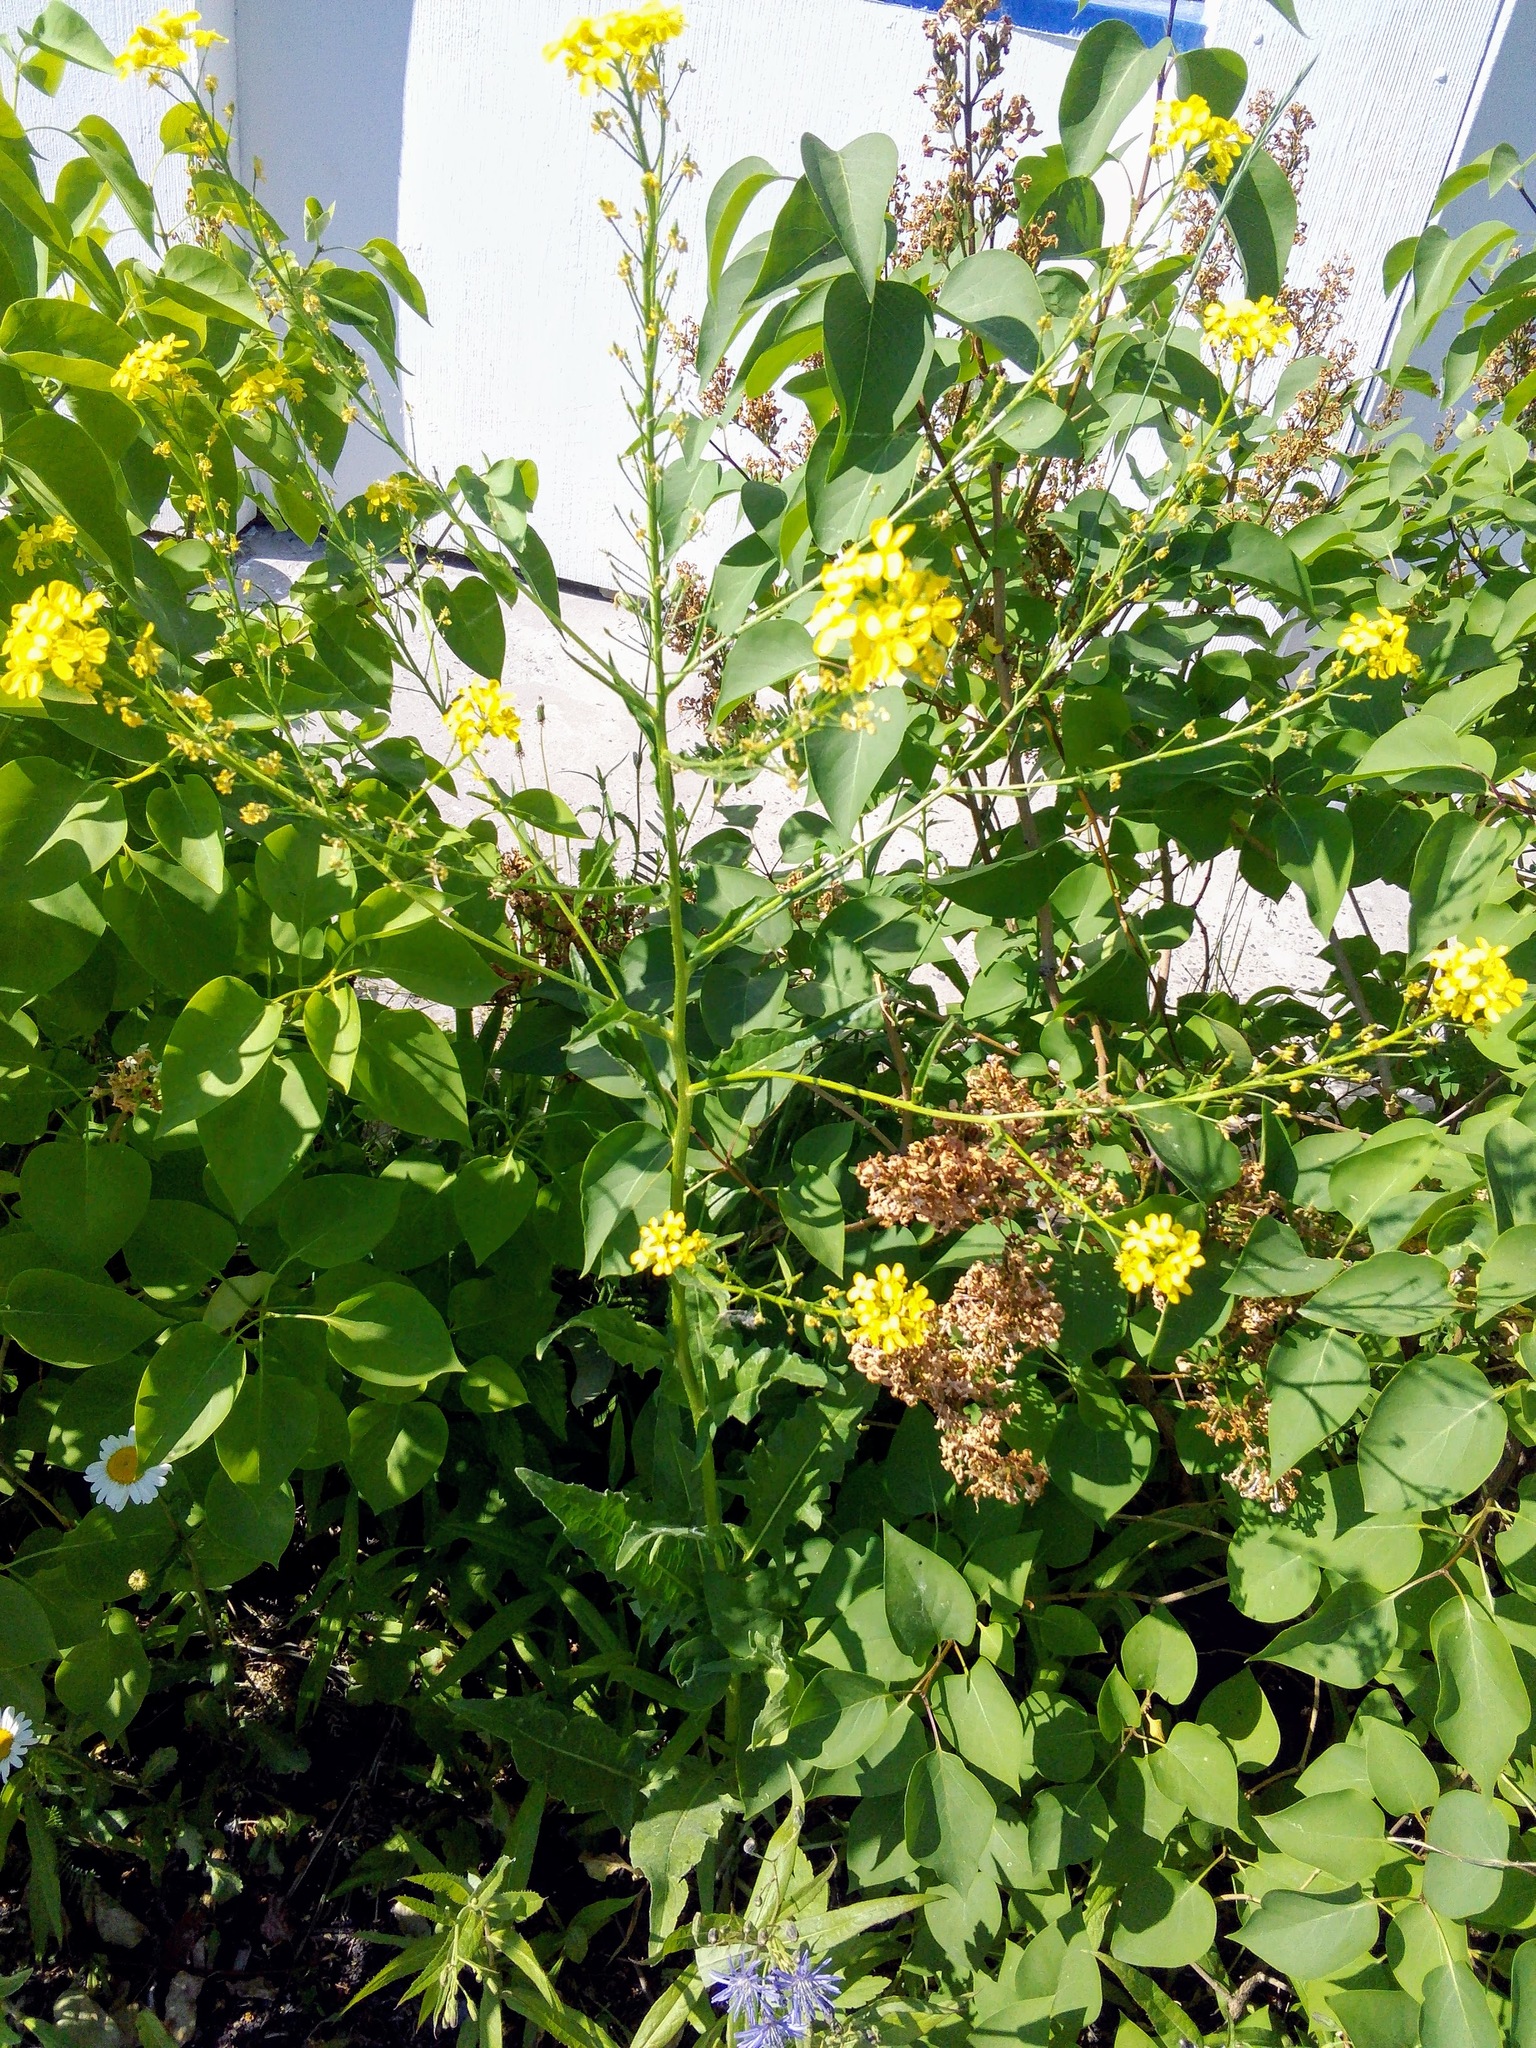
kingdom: Plantae
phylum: Tracheophyta
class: Magnoliopsida
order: Brassicales
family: Brassicaceae
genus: Bunias
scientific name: Bunias orientalis
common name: Warty-cabbage
